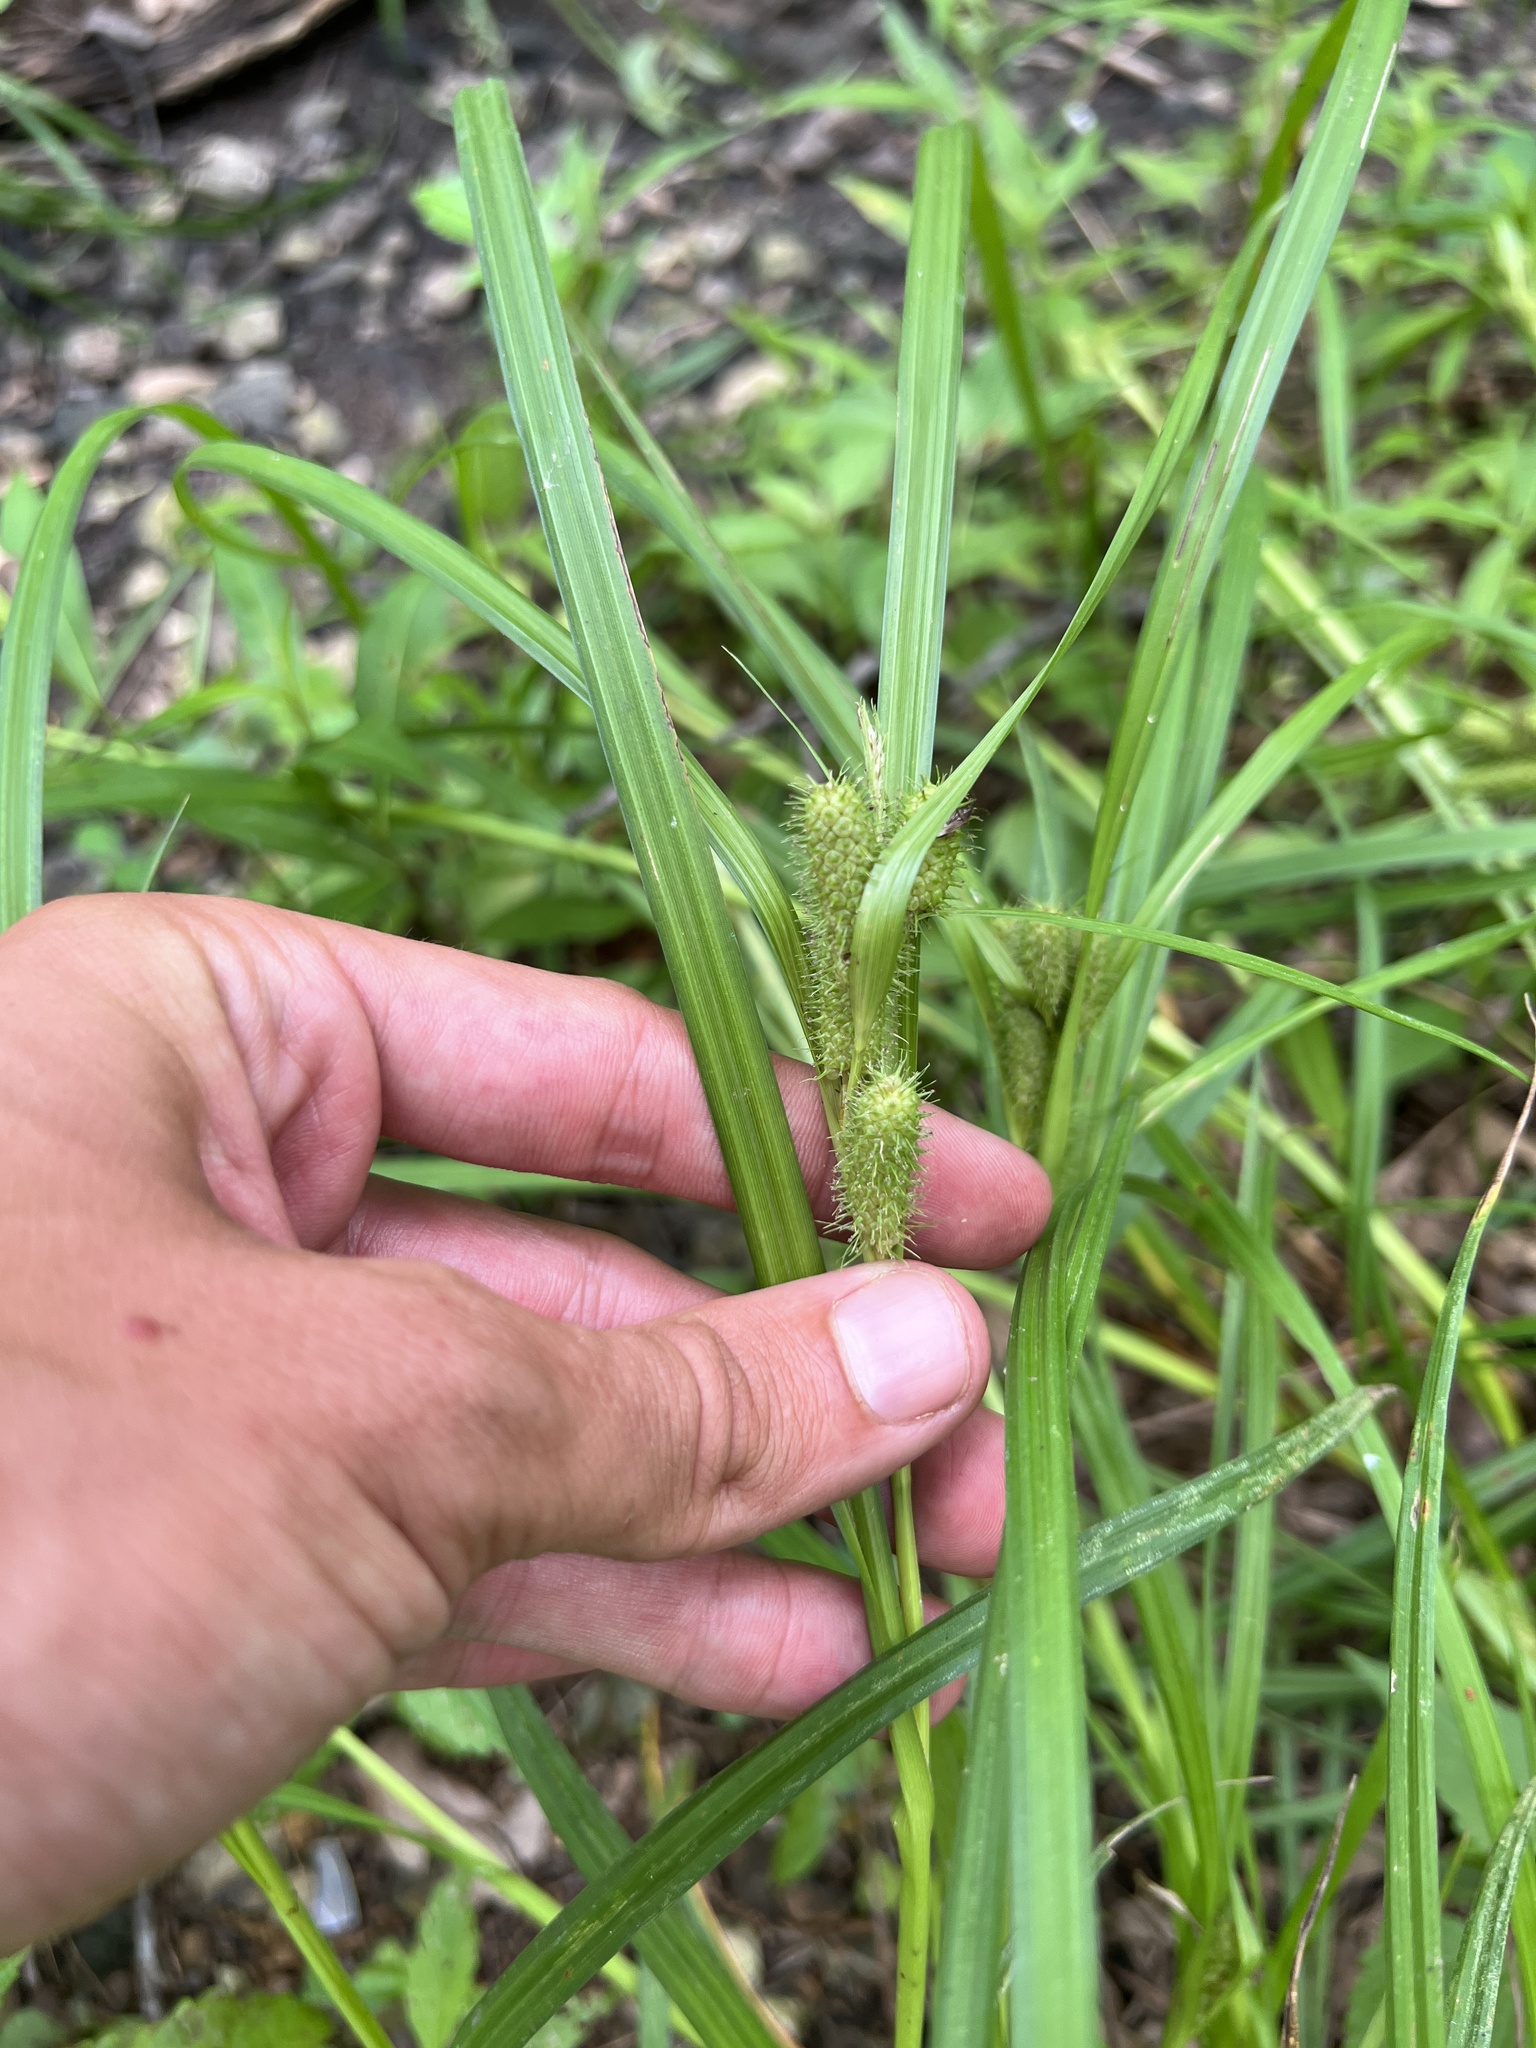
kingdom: Plantae
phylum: Tracheophyta
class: Liliopsida
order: Poales
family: Cyperaceae
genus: Carex
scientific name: Carex frankii
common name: Frank's sedge
